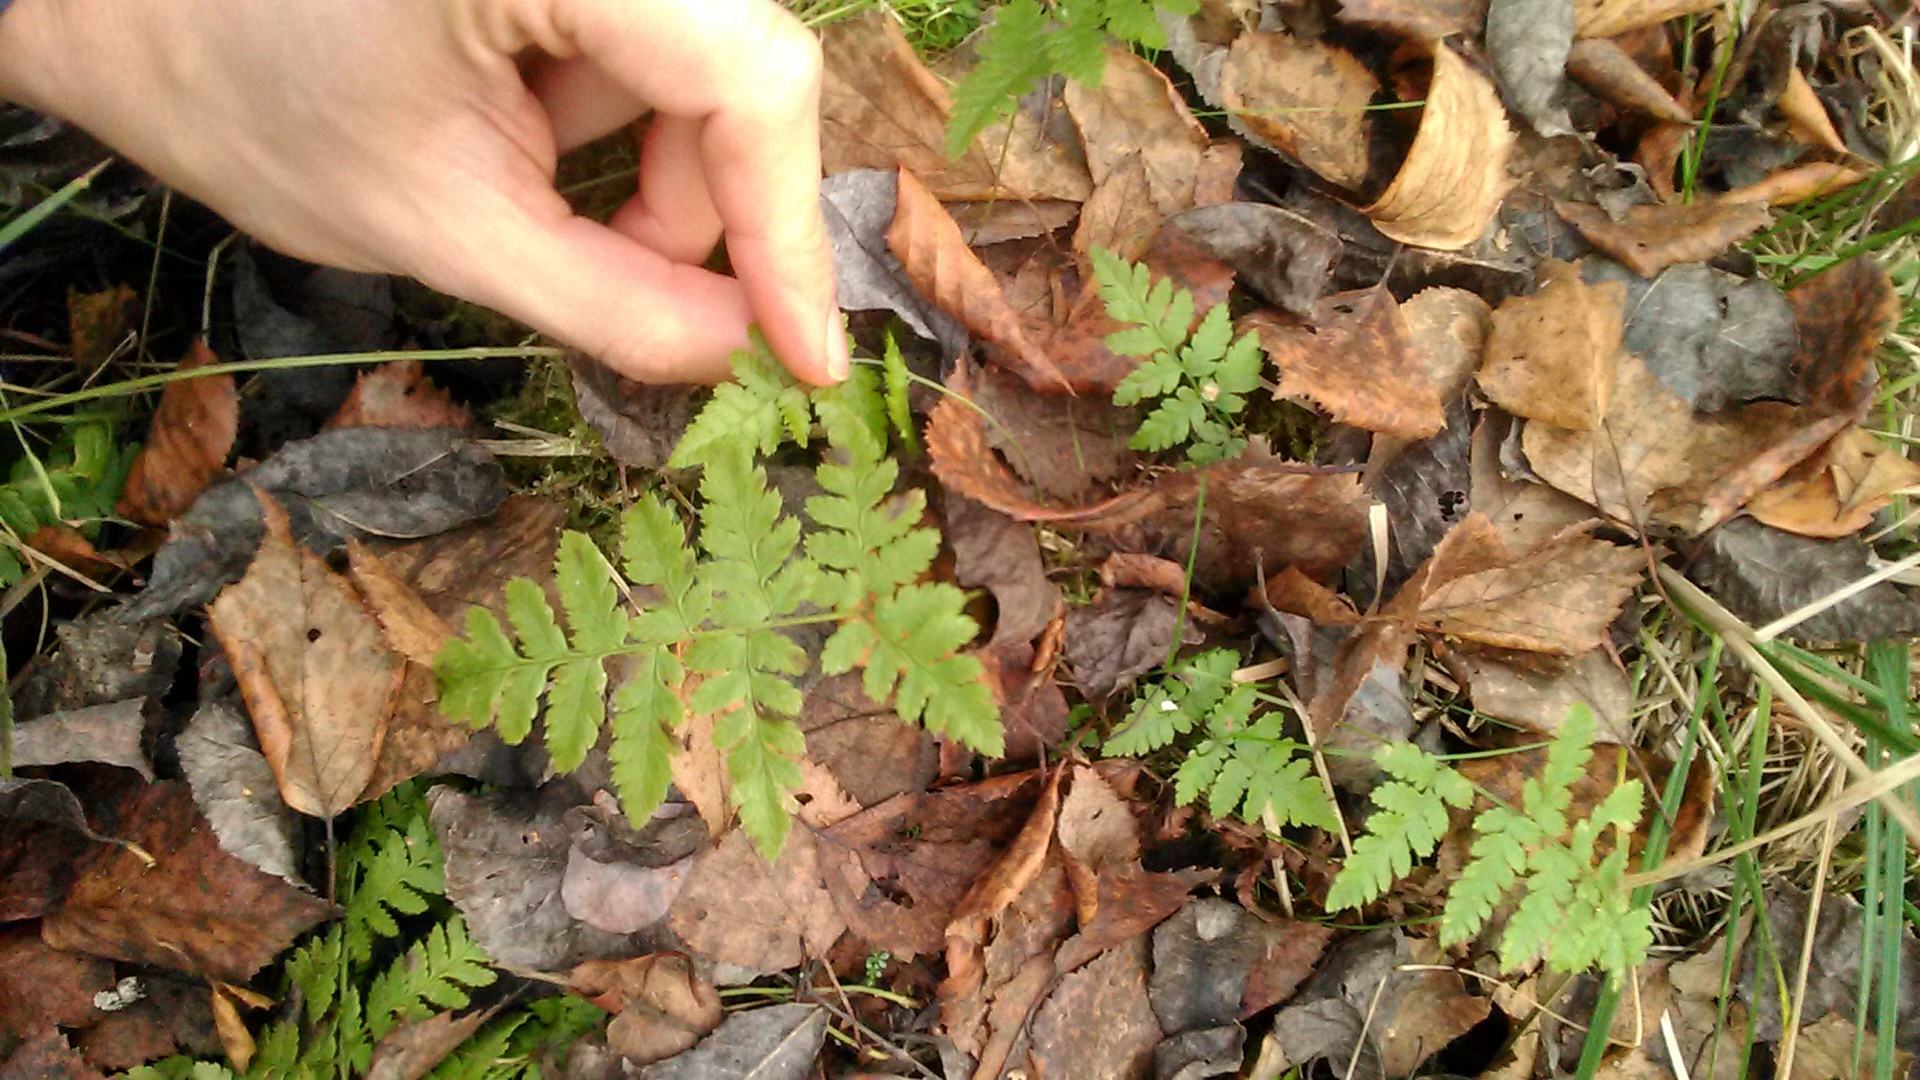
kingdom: Plantae
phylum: Tracheophyta
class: Polypodiopsida
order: Polypodiales
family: Dryopteridaceae
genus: Dryopteris
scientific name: Dryopteris carthusiana
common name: Narrow buckler-fern
